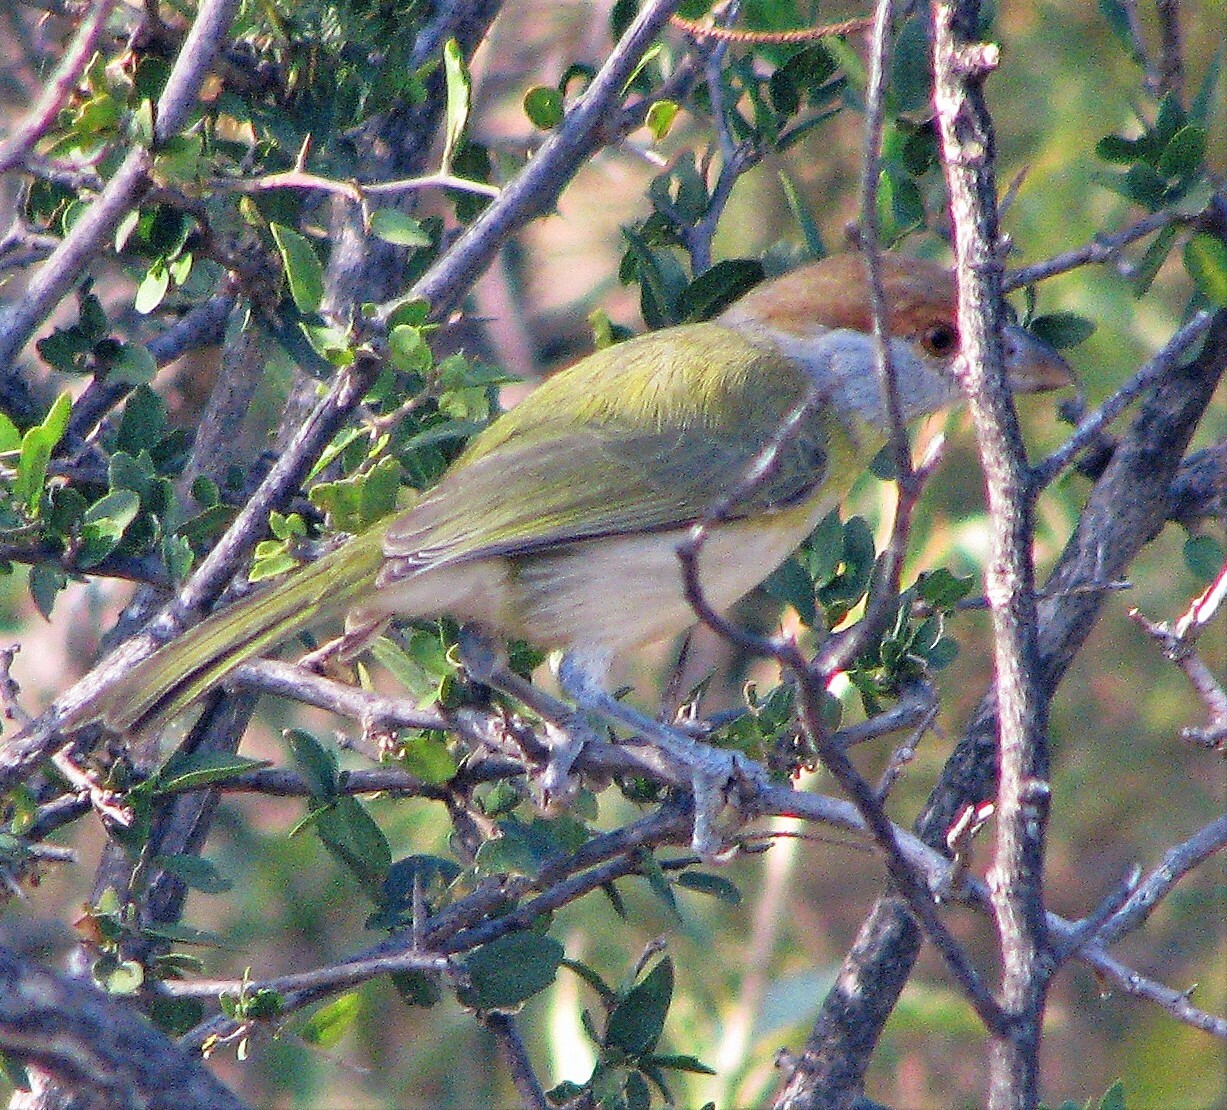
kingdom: Animalia
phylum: Chordata
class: Aves
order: Passeriformes
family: Vireonidae
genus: Cyclarhis
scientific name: Cyclarhis gujanensis
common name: Rufous-browed peppershrike
